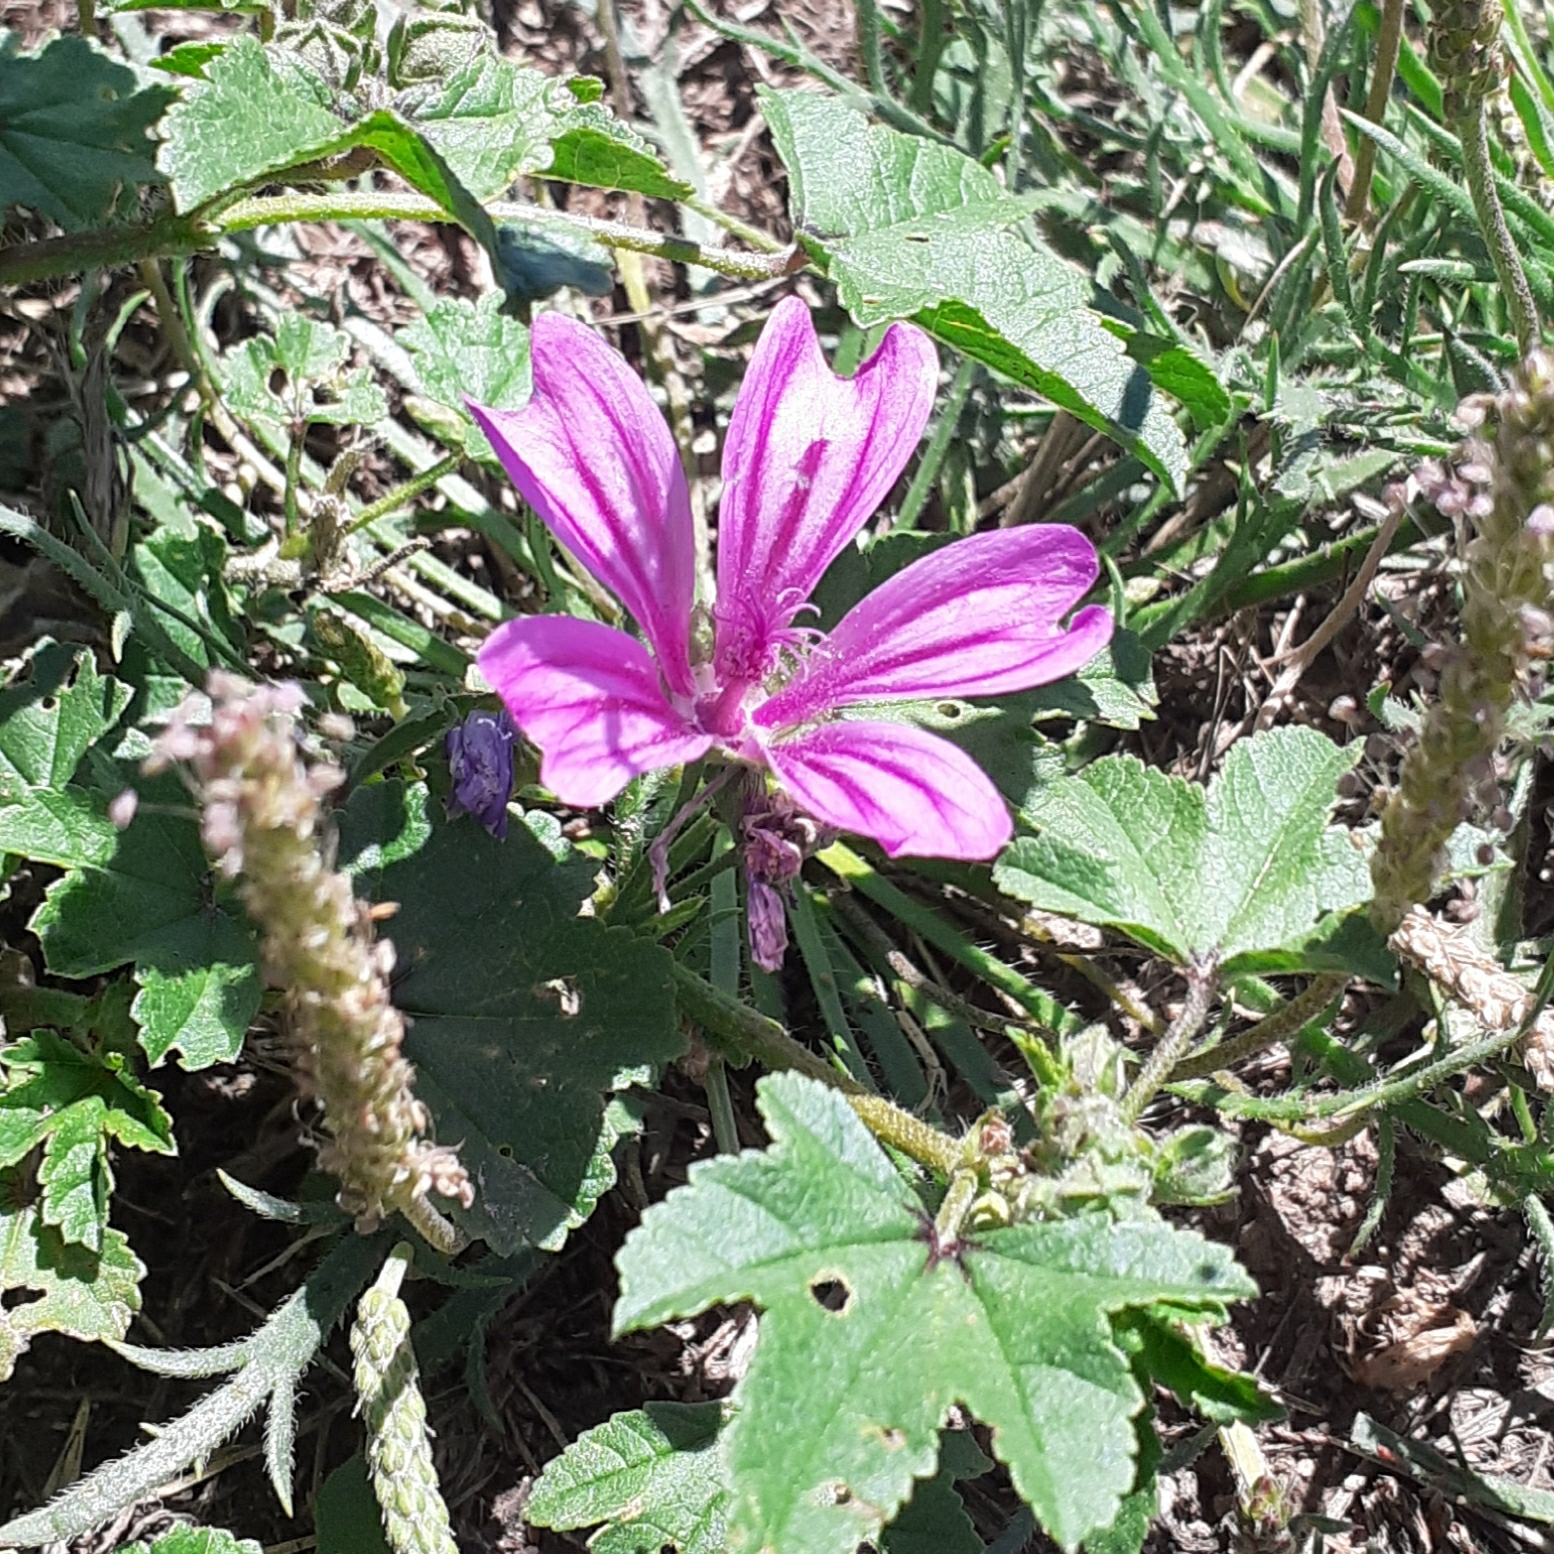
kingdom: Plantae
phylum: Tracheophyta
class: Magnoliopsida
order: Malvales
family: Malvaceae
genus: Malva
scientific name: Malva sylvestris
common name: Common mallow
